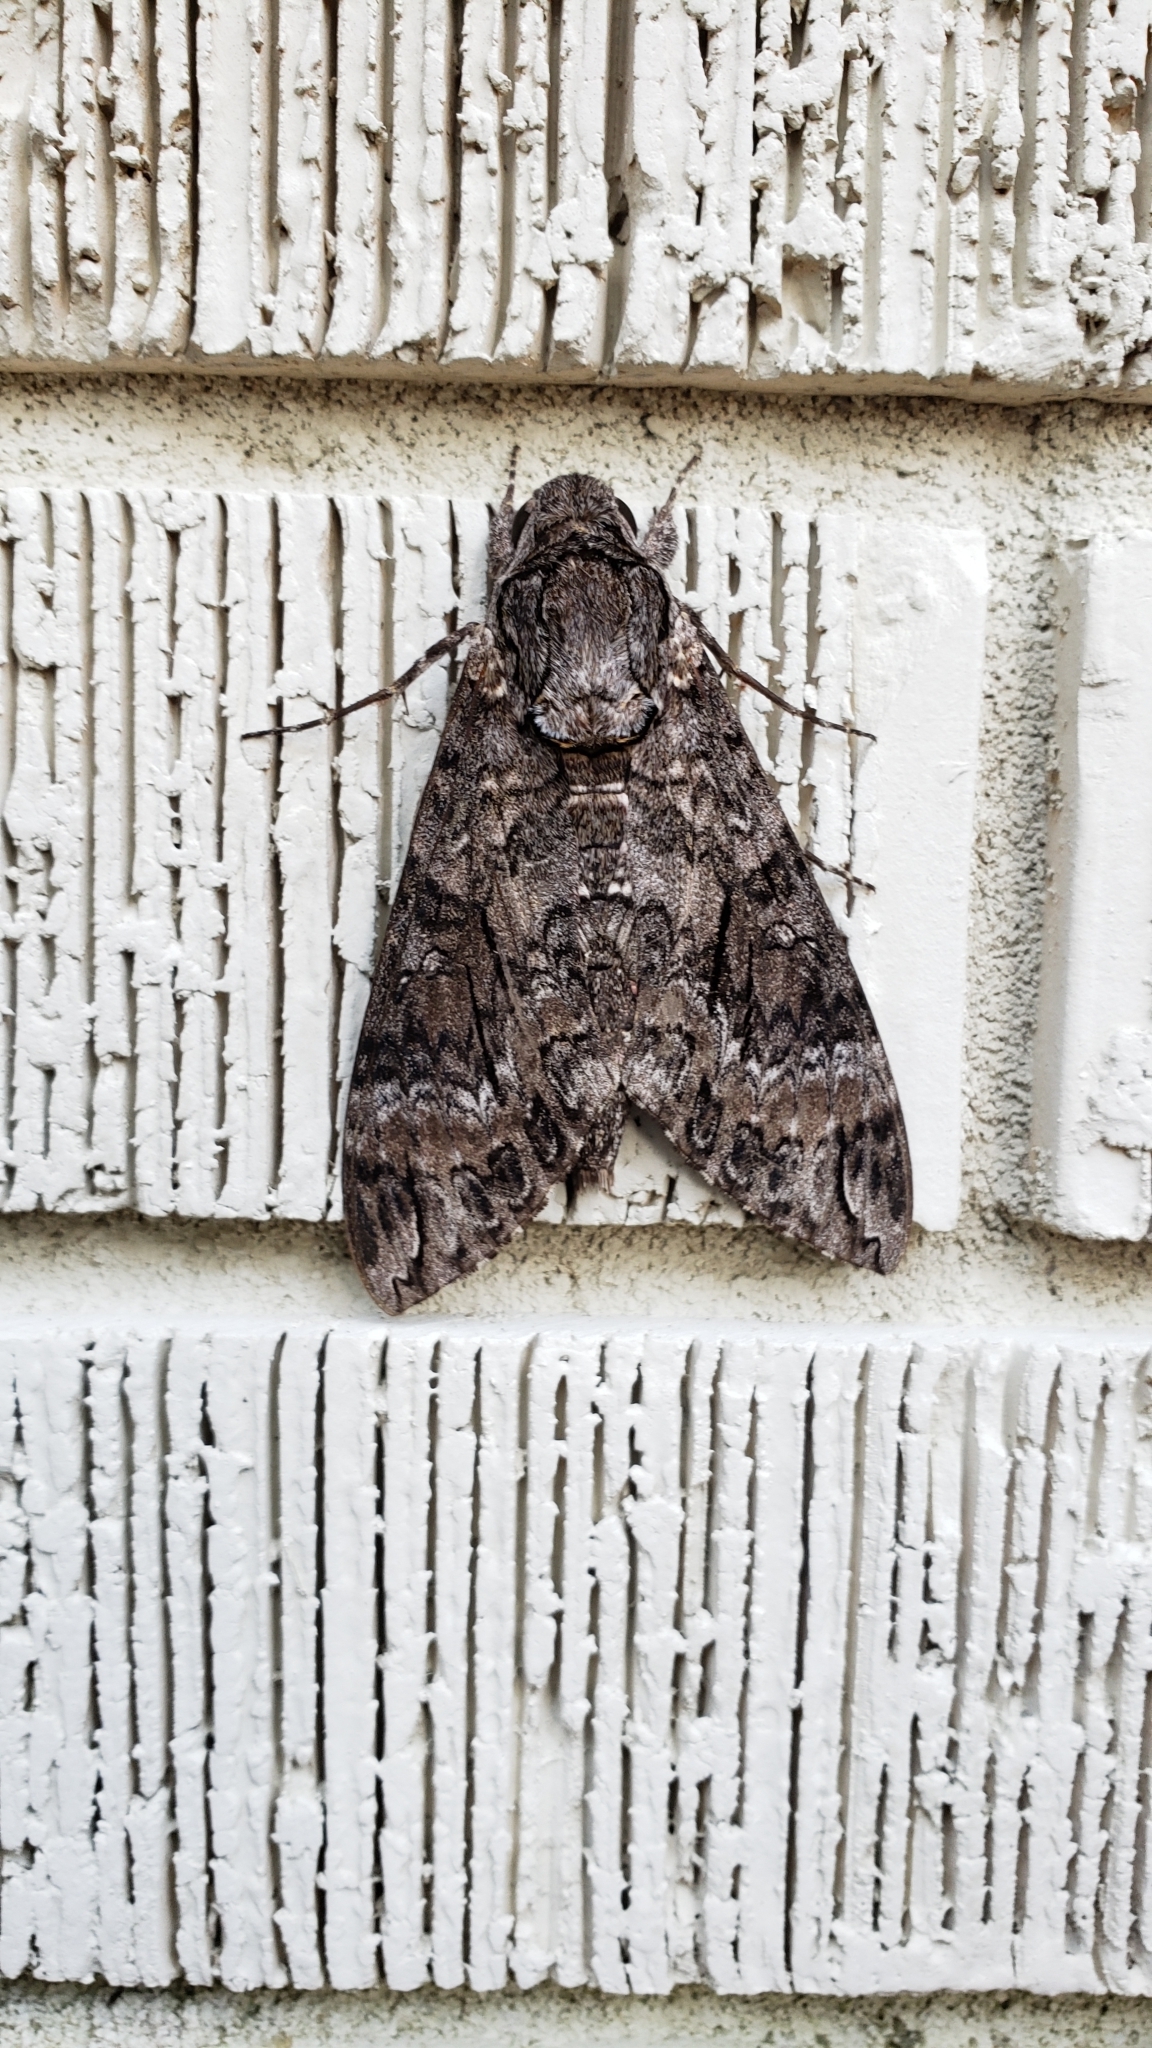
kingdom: Animalia
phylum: Arthropoda
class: Insecta
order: Lepidoptera
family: Sphingidae
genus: Agrius
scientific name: Agrius cingulata
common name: Pink-spotted hawkmoth
